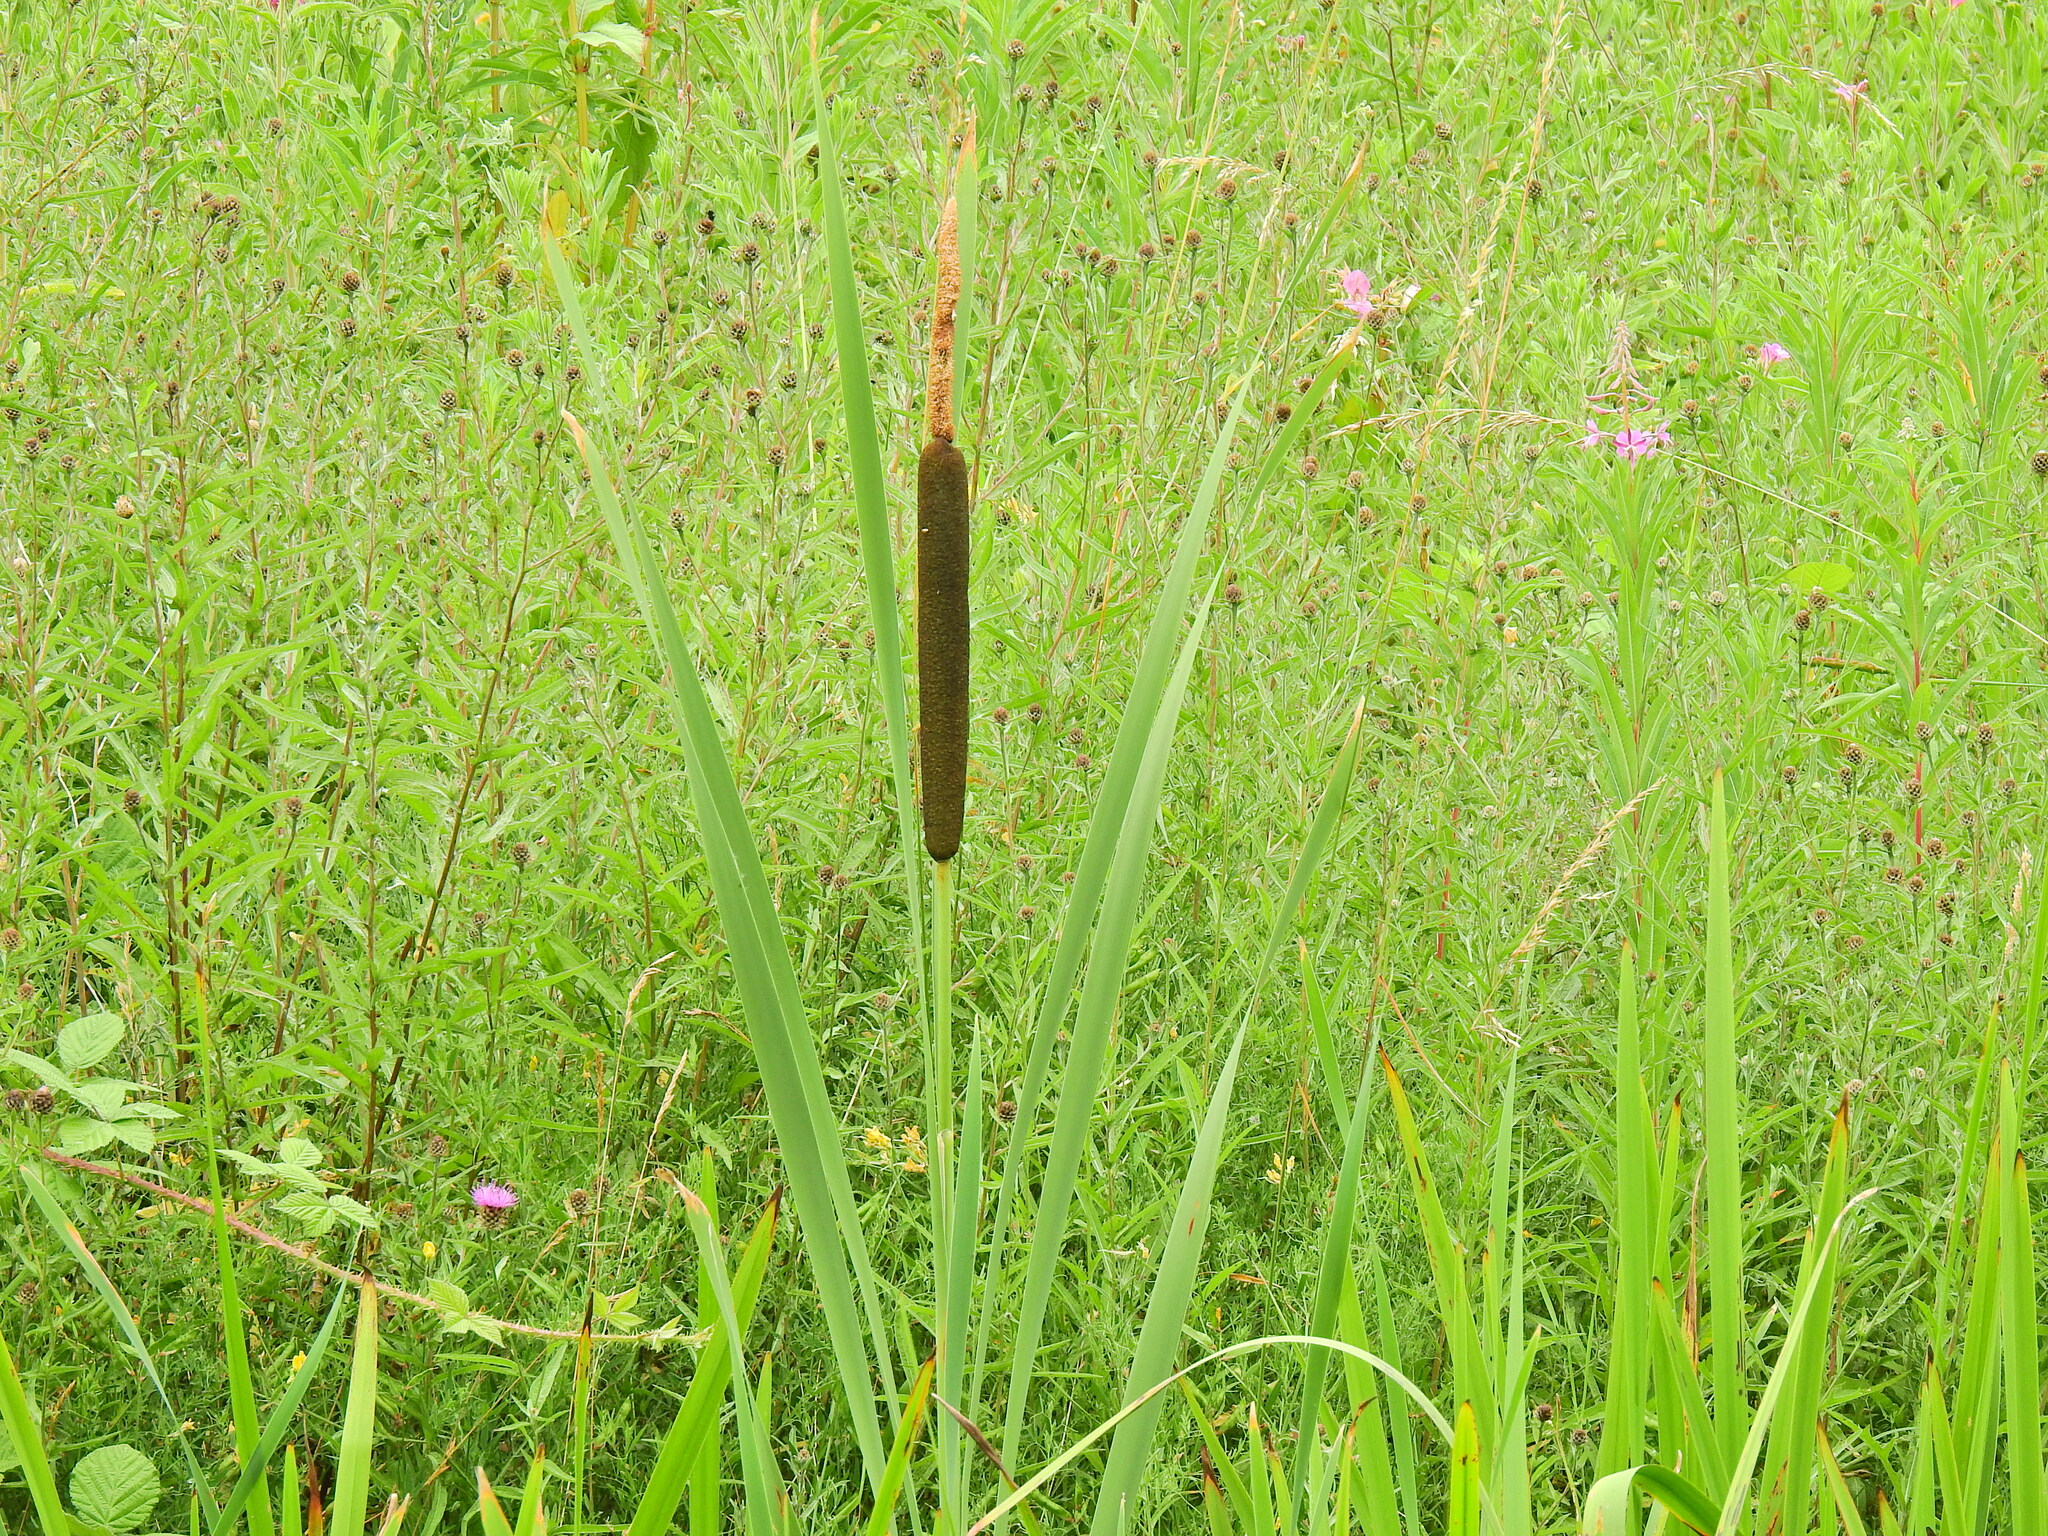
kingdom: Plantae
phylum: Tracheophyta
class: Liliopsida
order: Poales
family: Typhaceae
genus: Typha
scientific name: Typha latifolia
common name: Broadleaf cattail
